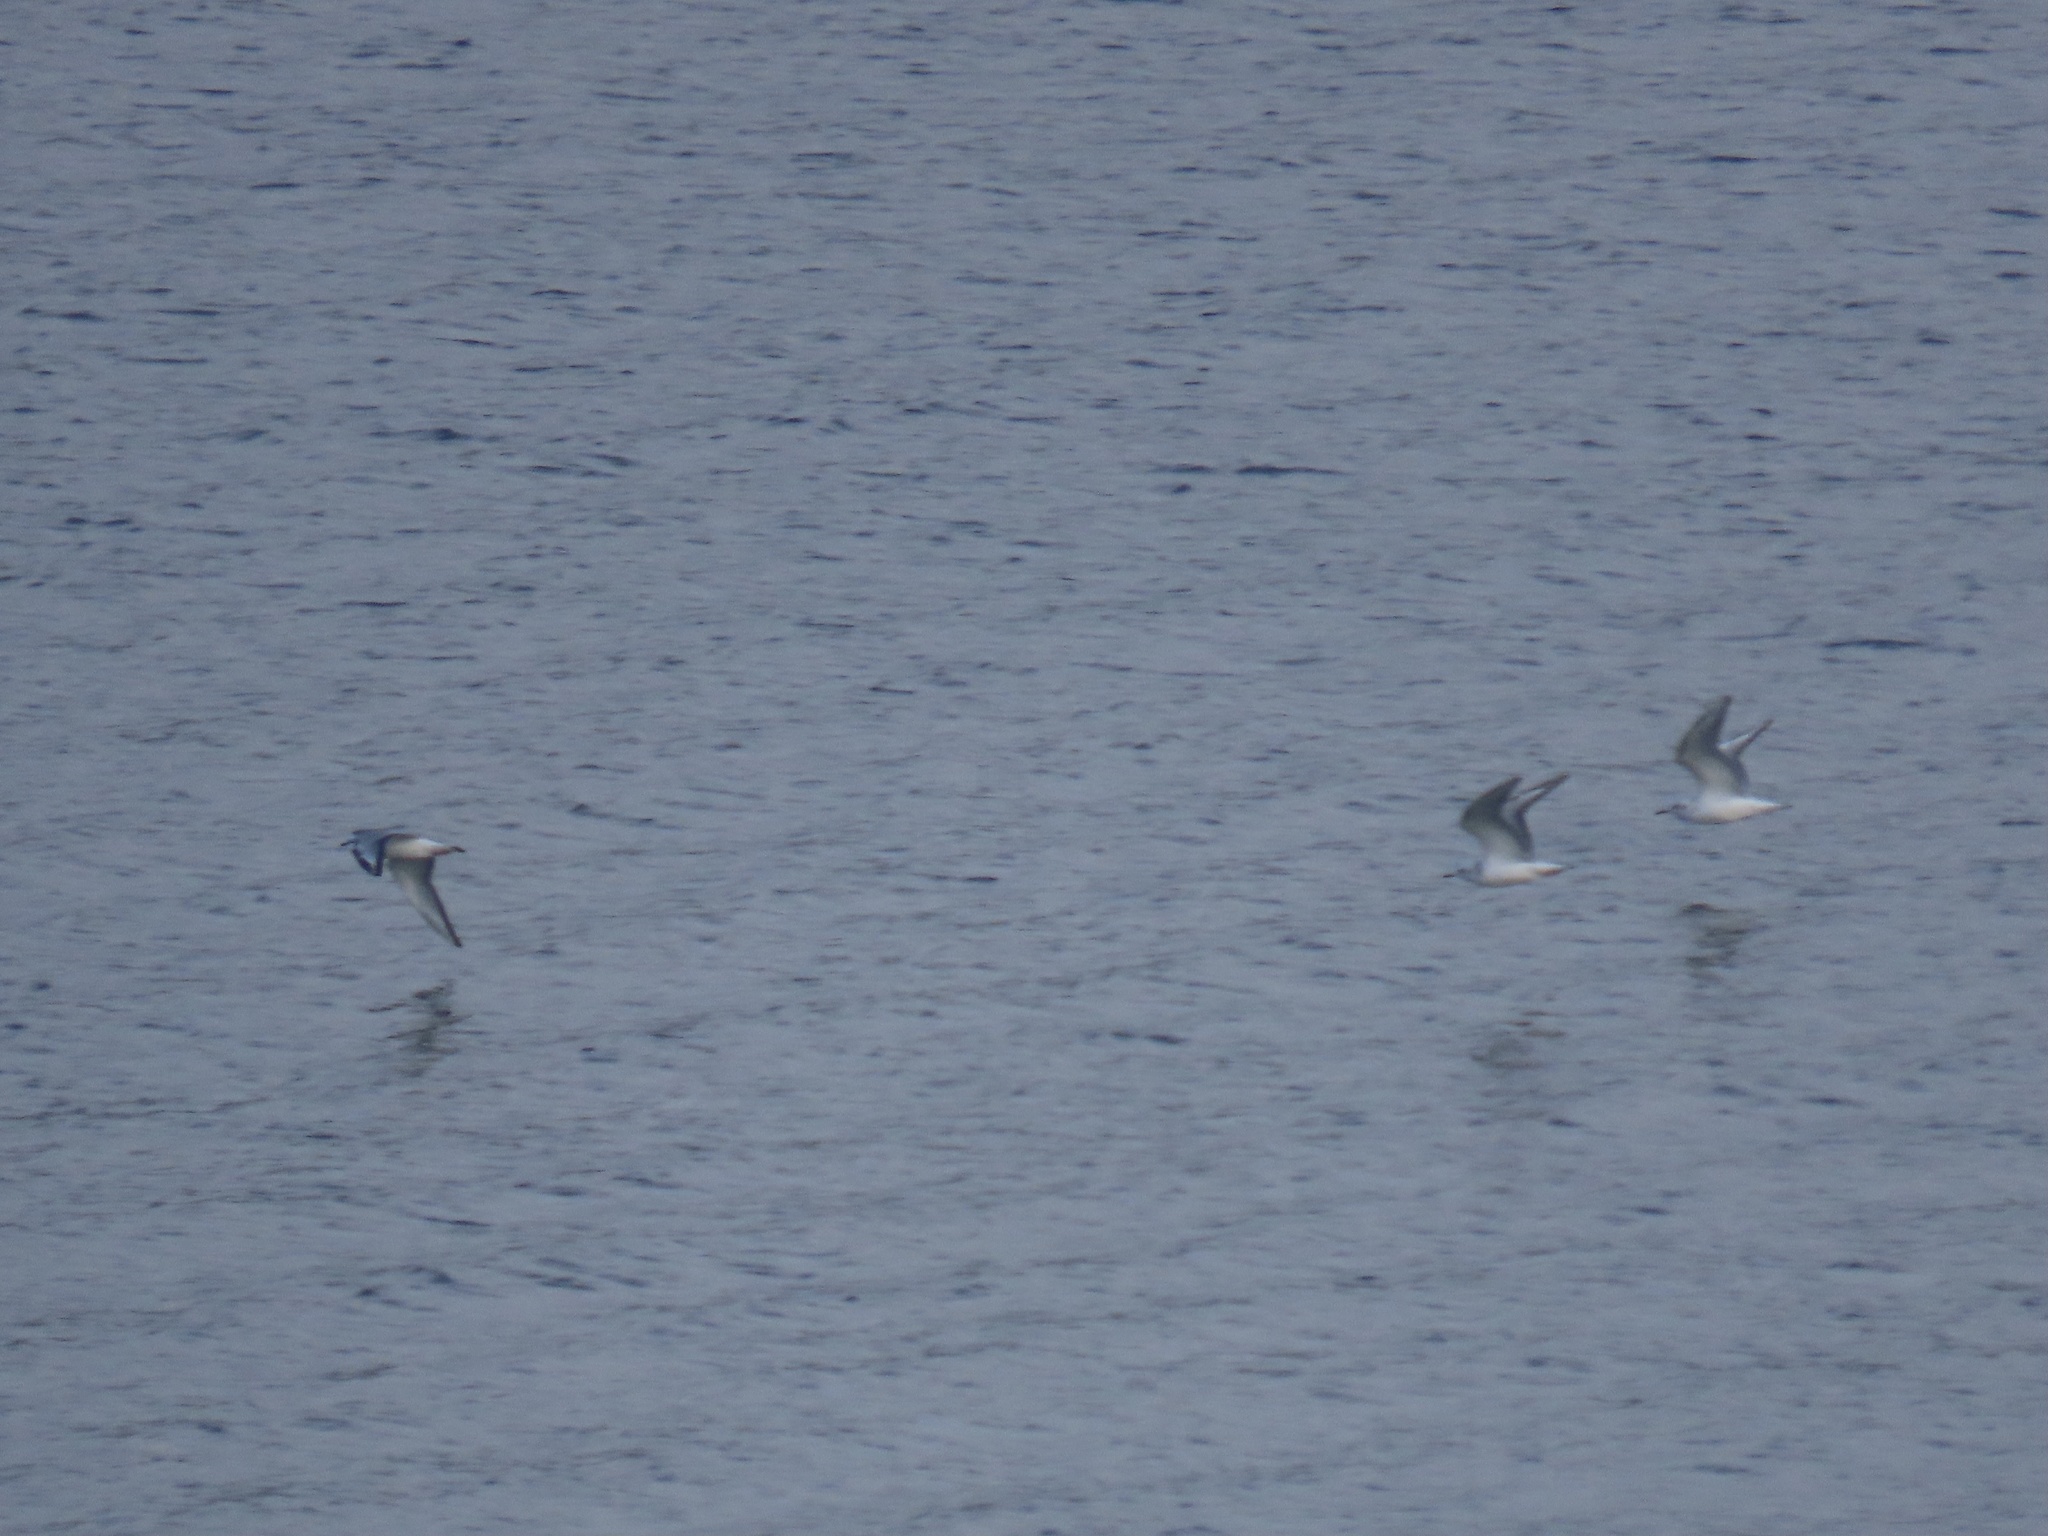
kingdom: Animalia
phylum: Chordata
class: Aves
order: Charadriiformes
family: Laridae
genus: Chroicocephalus
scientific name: Chroicocephalus philadelphia
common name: Bonaparte's gull
